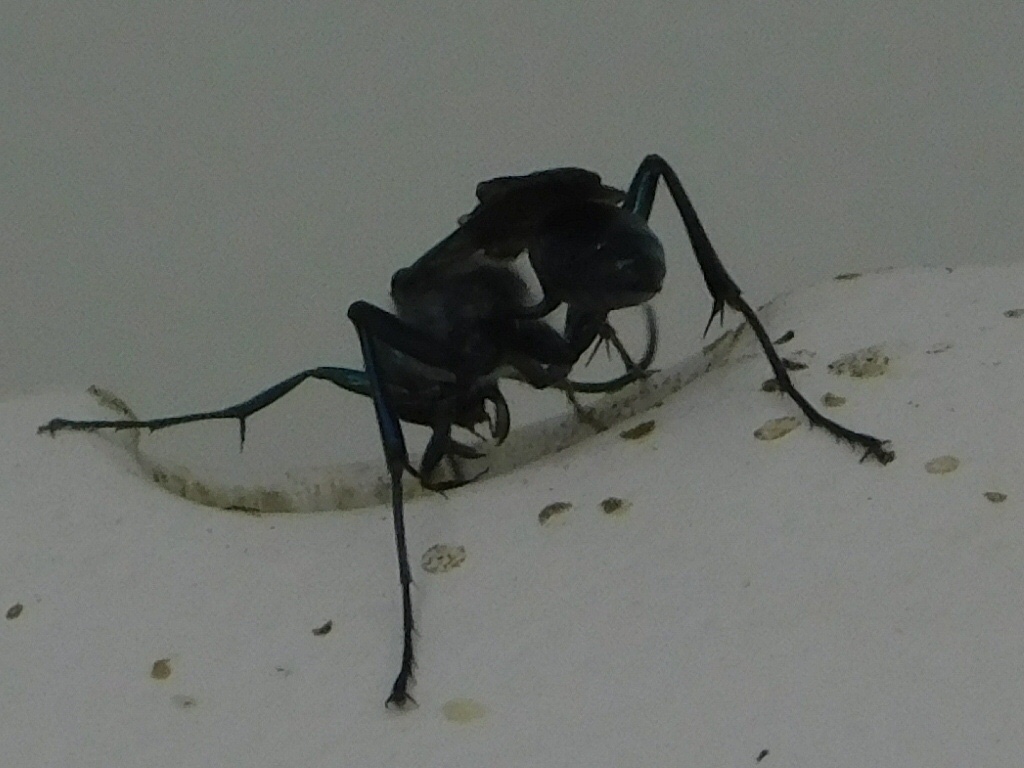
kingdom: Animalia
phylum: Arthropoda
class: Insecta
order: Hymenoptera
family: Sphecidae
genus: Chlorion
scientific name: Chlorion aerarium
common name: Steel-blue cricket hunter
